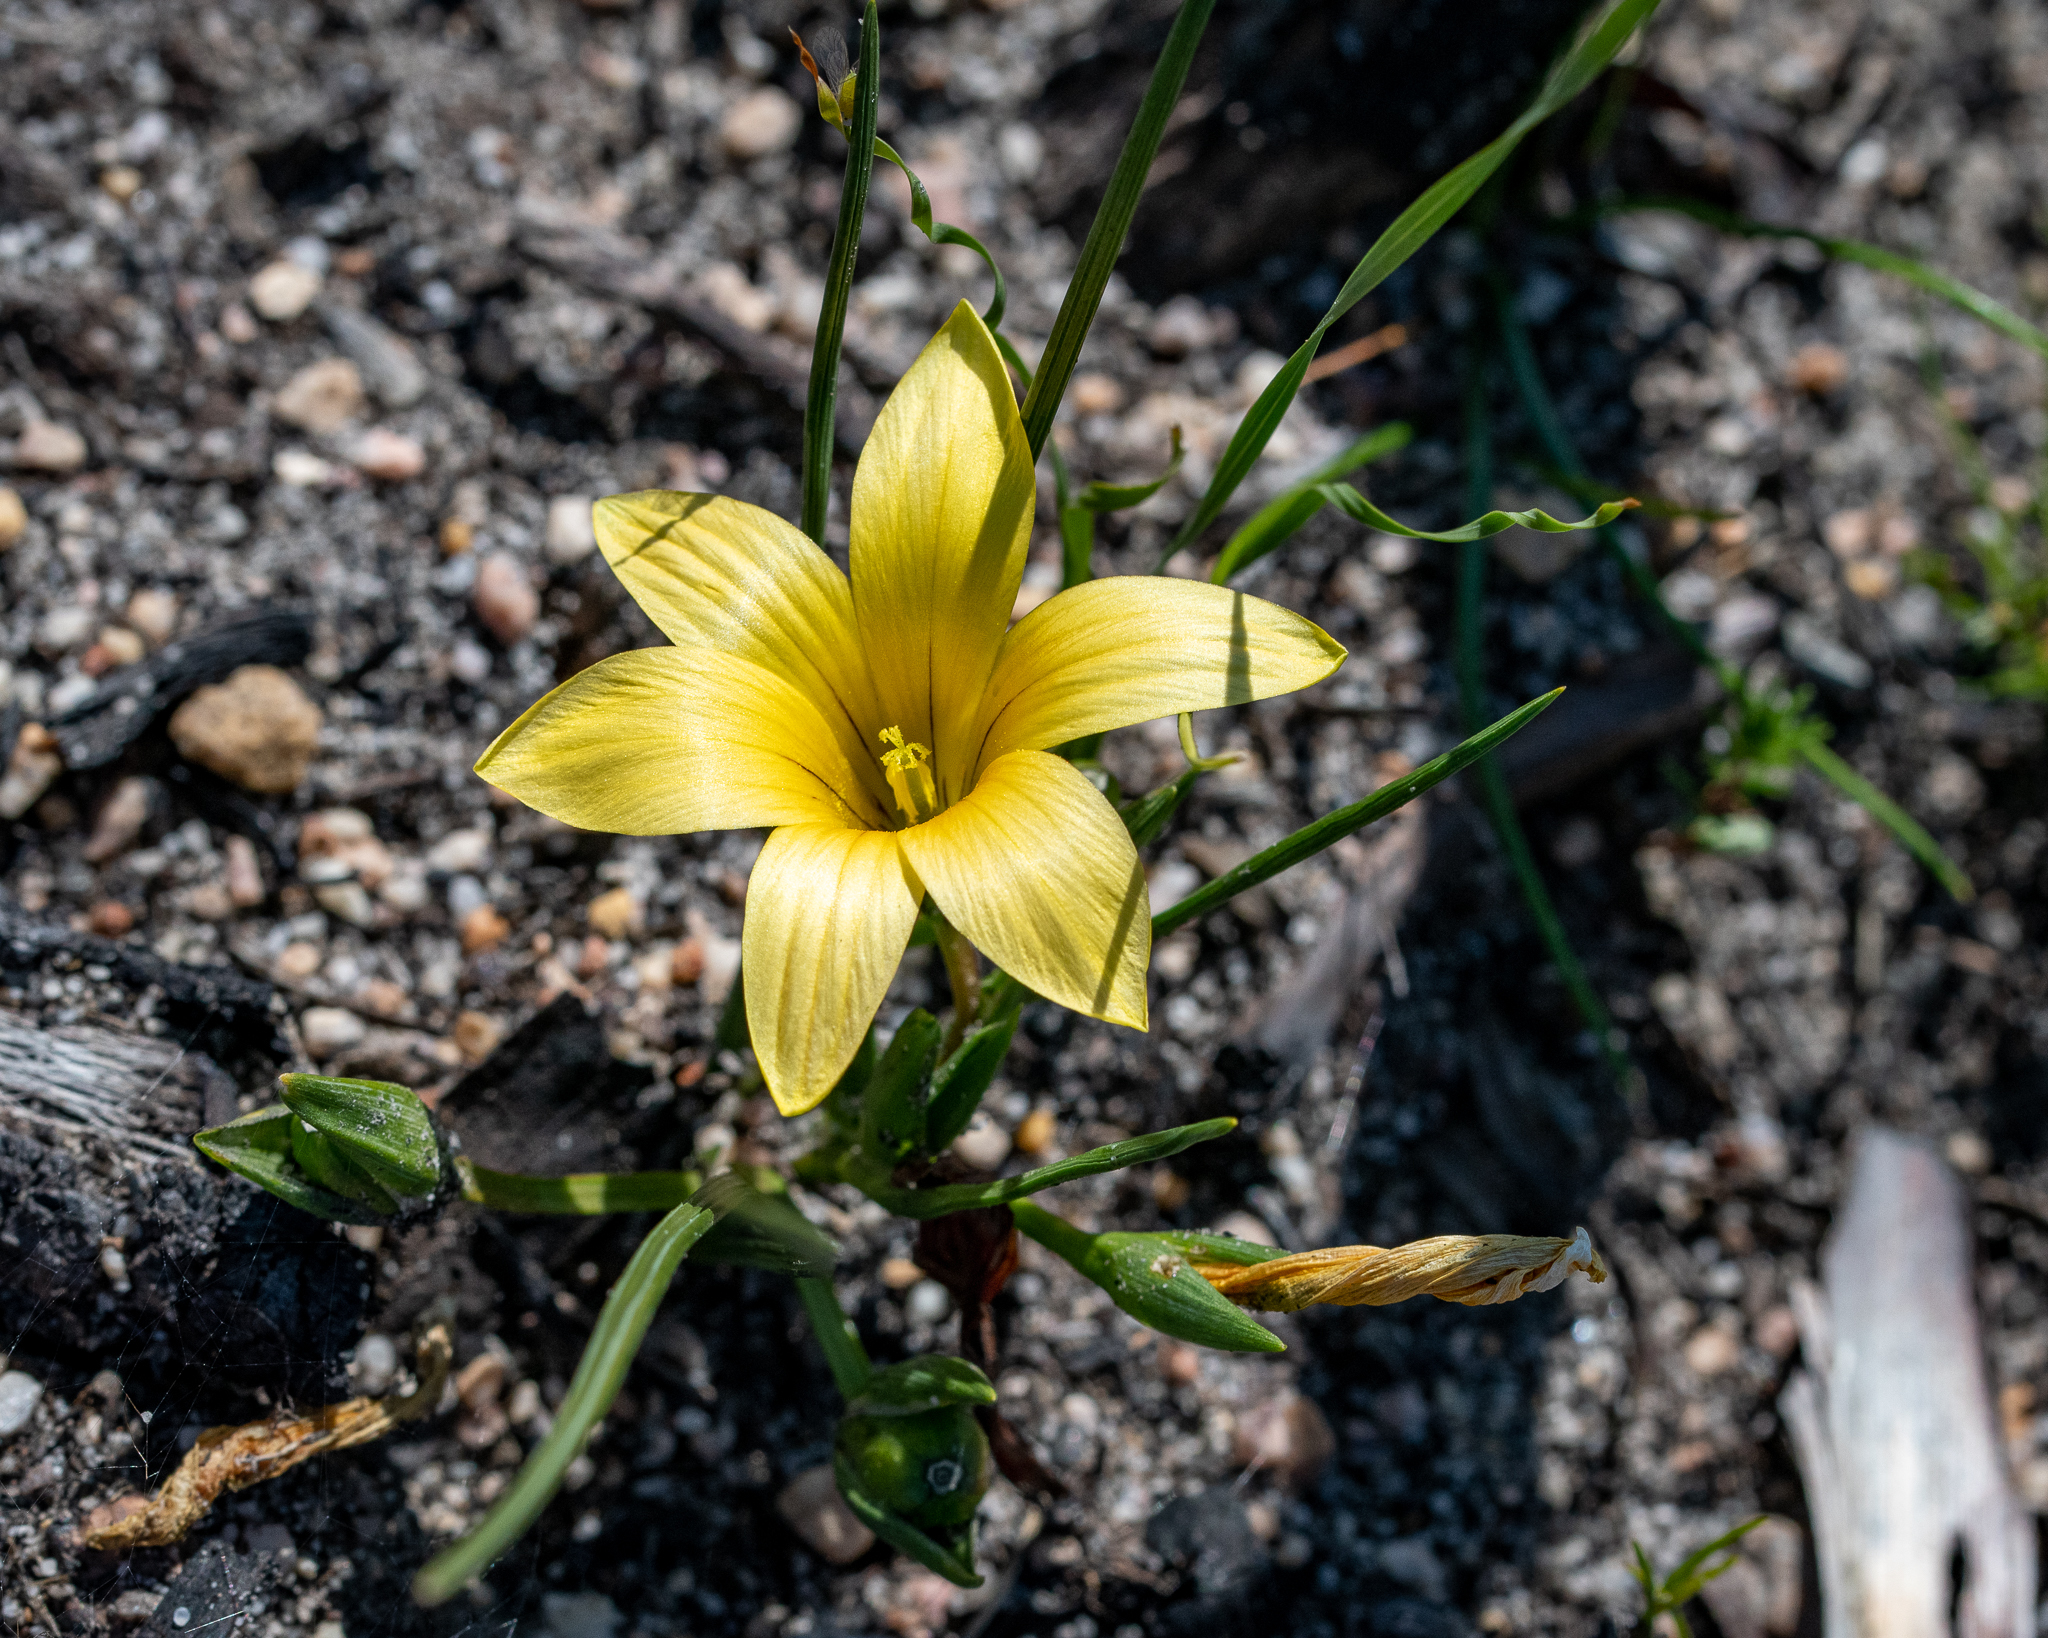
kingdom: Plantae
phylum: Tracheophyta
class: Liliopsida
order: Asparagales
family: Iridaceae
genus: Romulea
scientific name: Romulea flava
